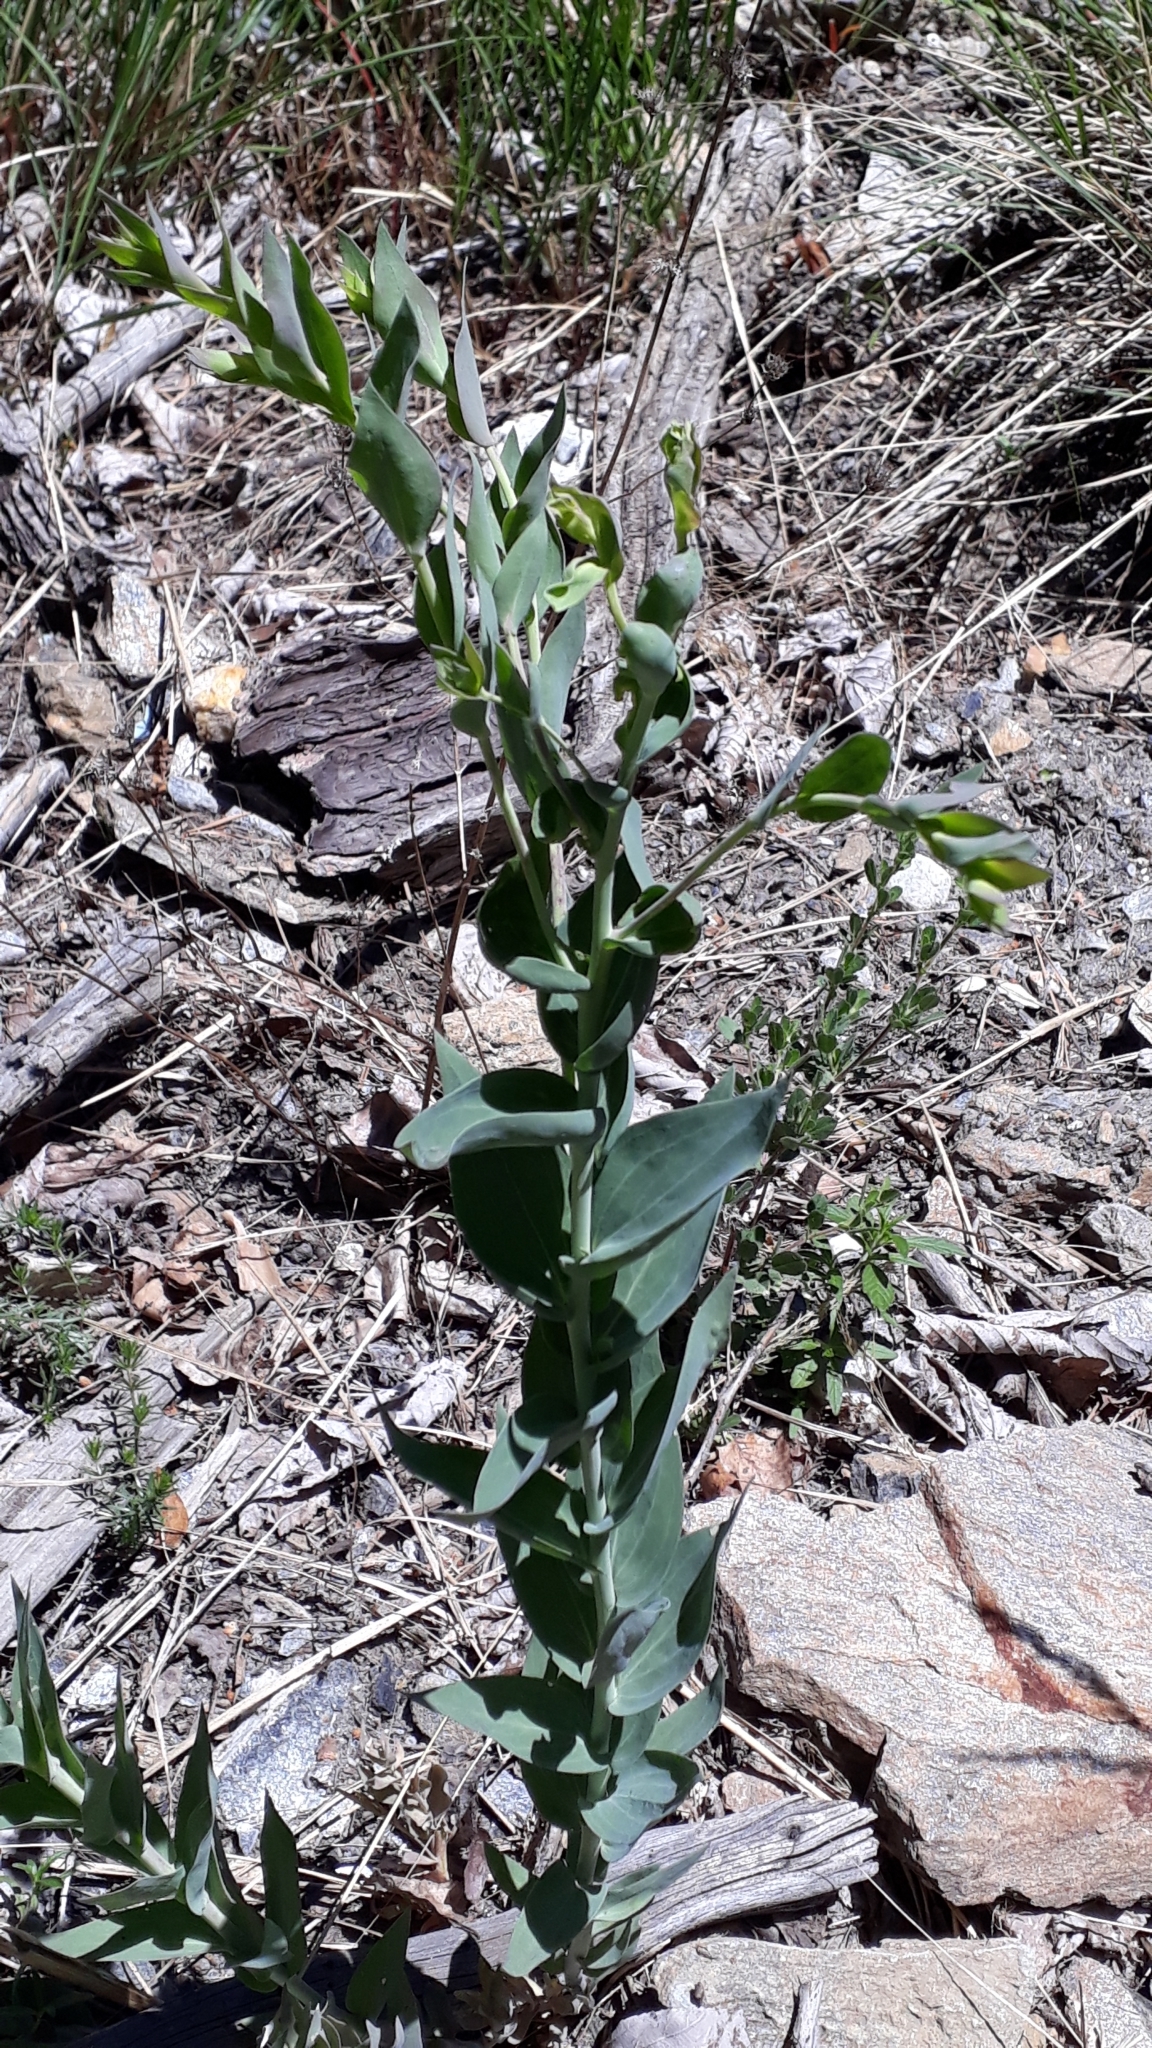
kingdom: Plantae
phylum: Tracheophyta
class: Magnoliopsida
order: Lamiales
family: Plantaginaceae
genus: Linaria
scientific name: Linaria dalmatica
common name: Dalmatian toadflax
